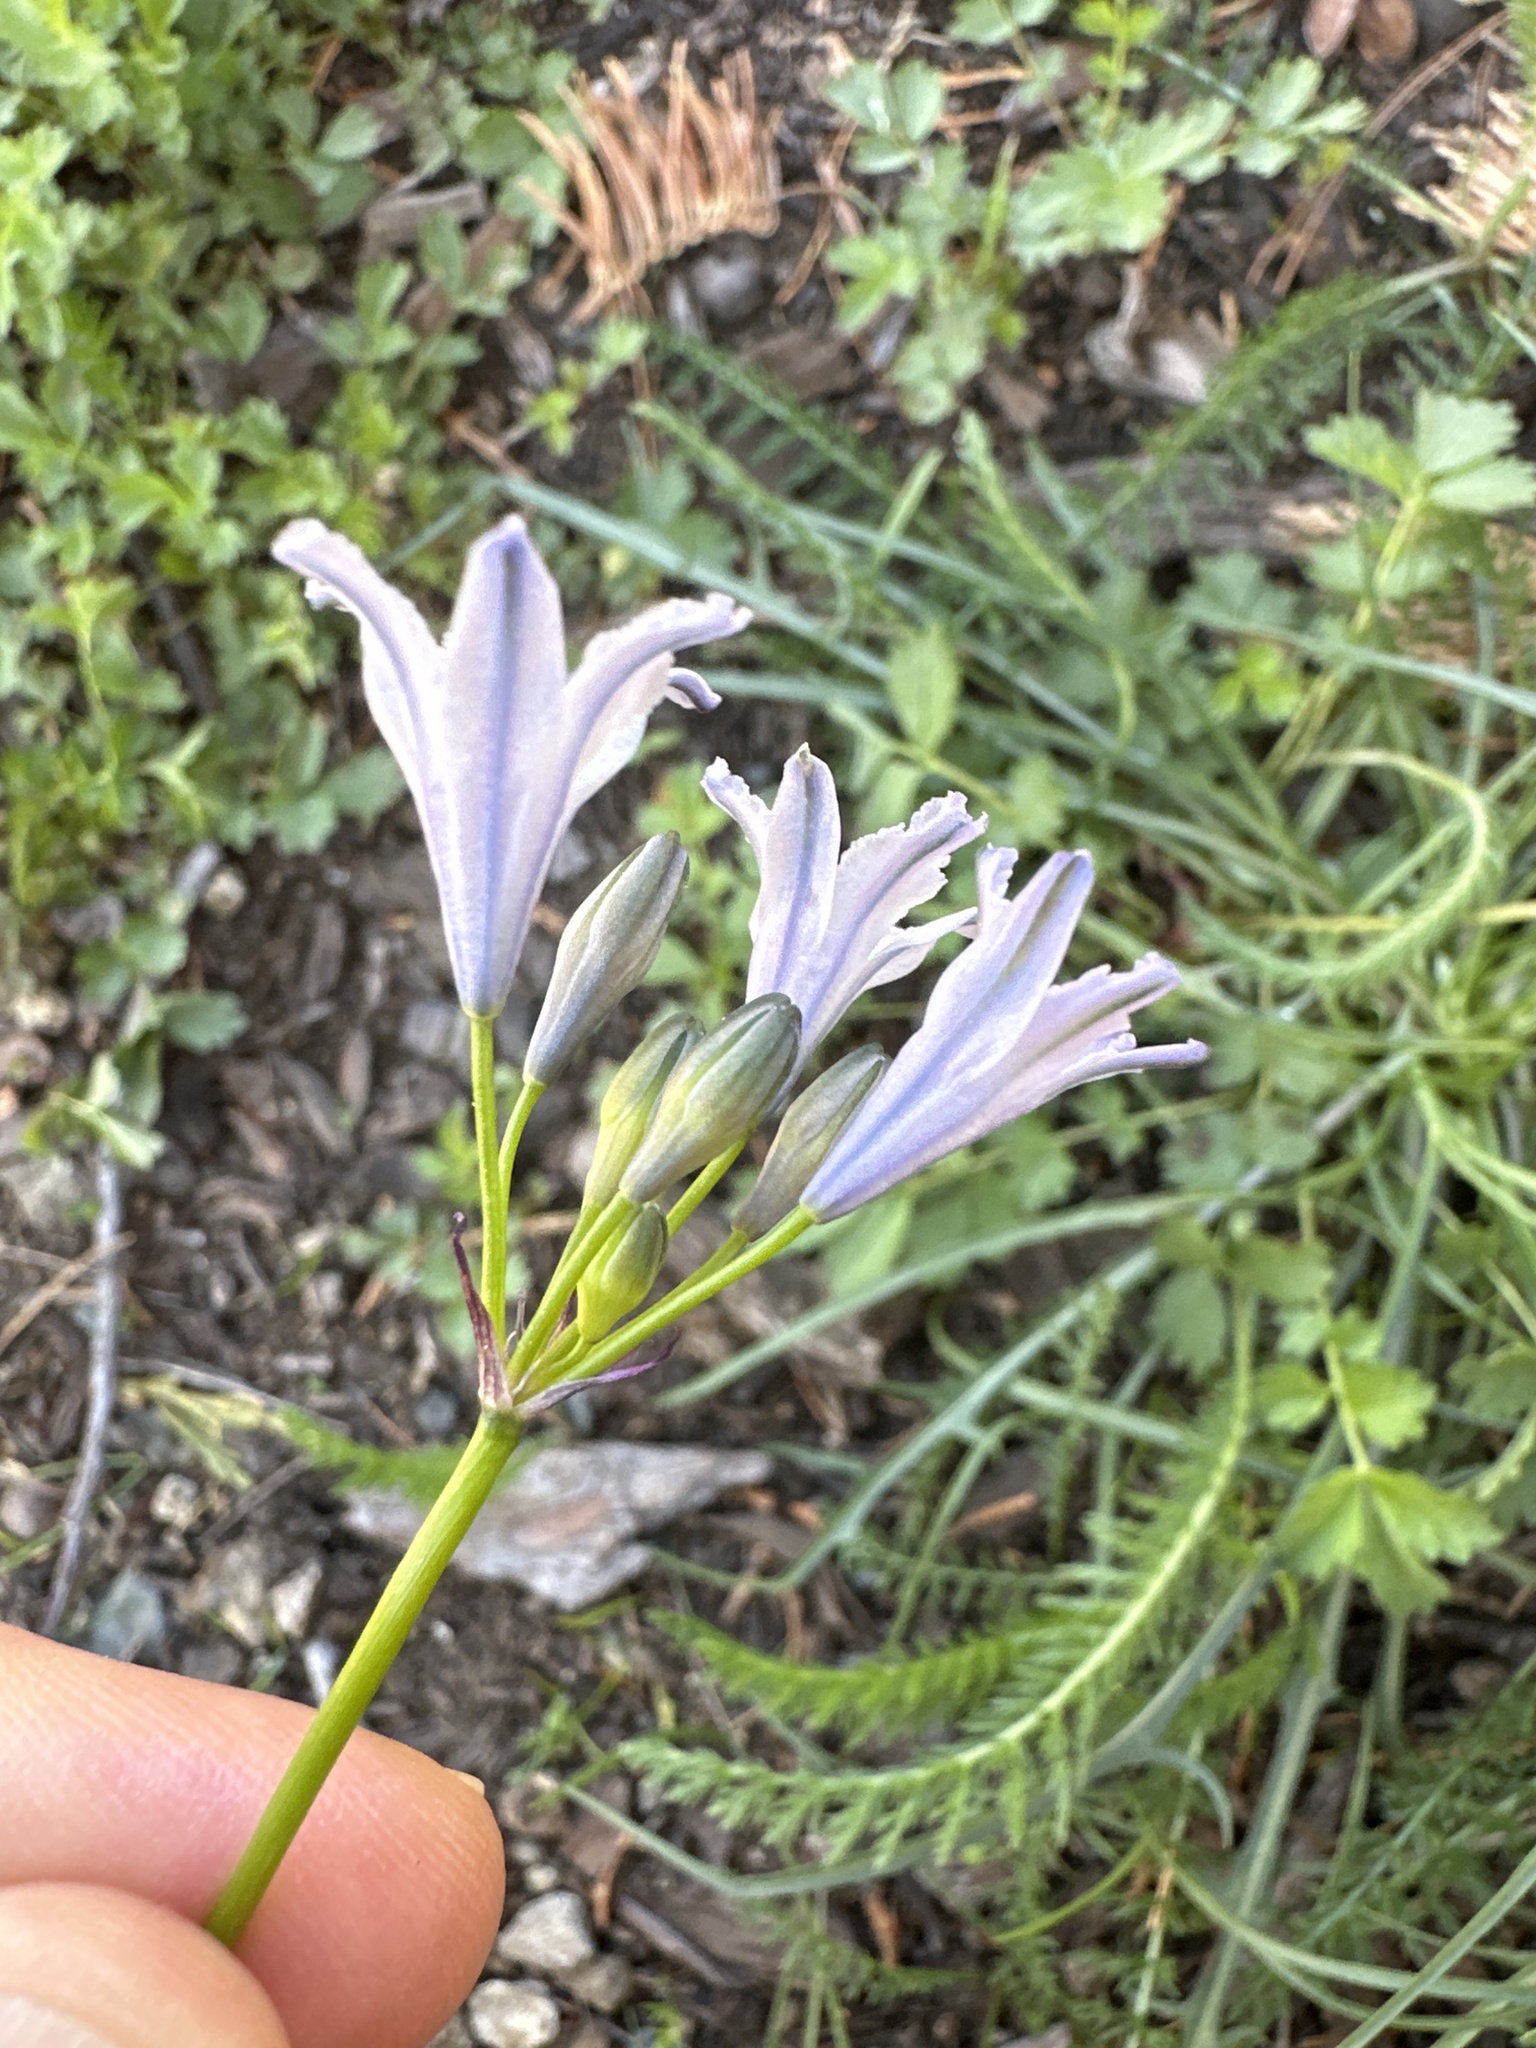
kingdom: Plantae
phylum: Tracheophyta
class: Liliopsida
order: Asparagales
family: Asparagaceae
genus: Triteleia
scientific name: Triteleia crocea
